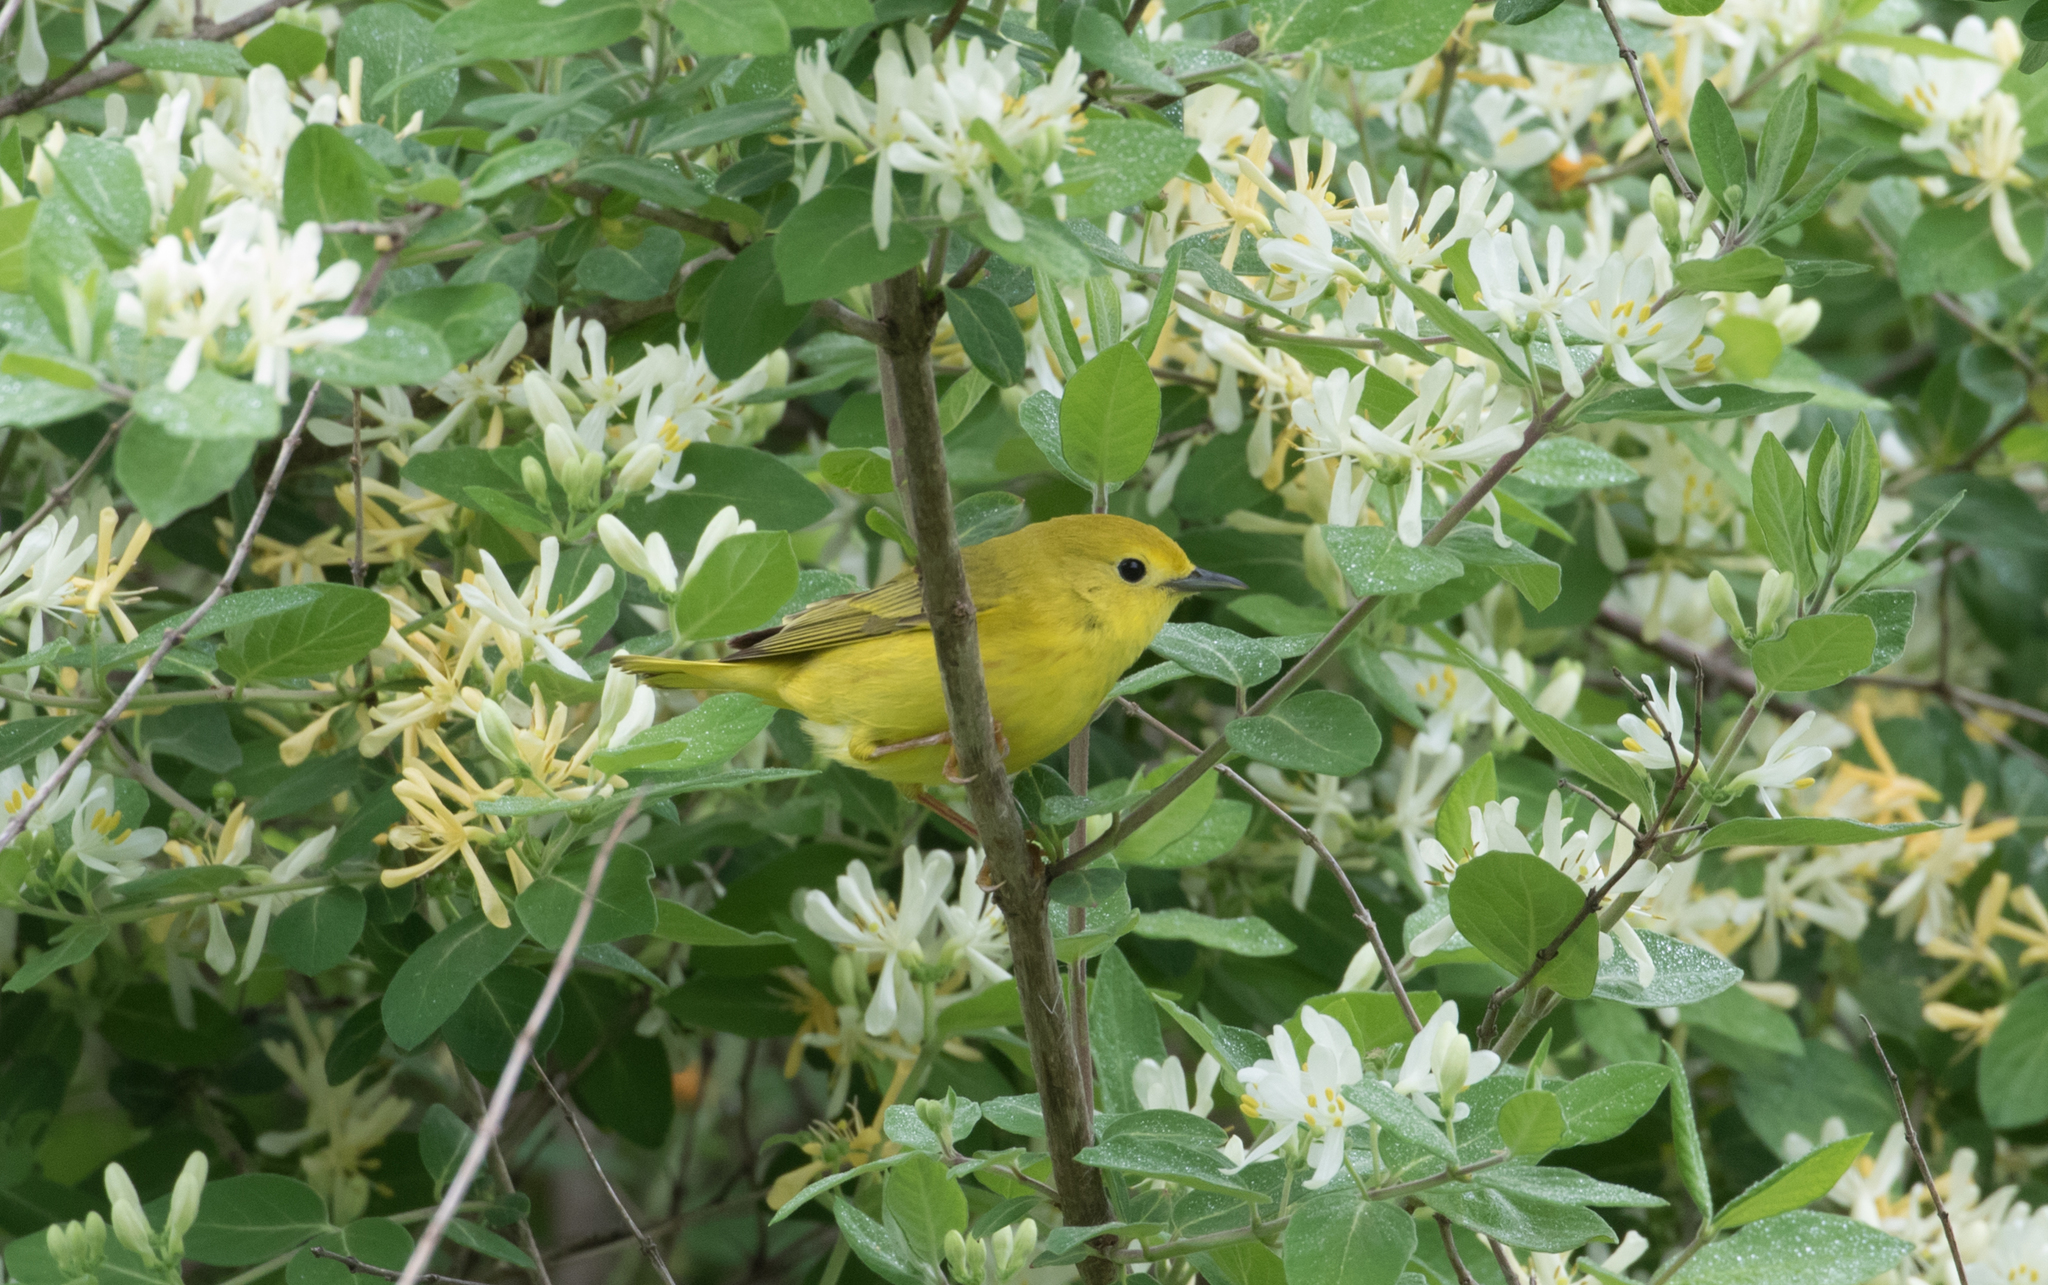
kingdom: Animalia
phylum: Chordata
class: Aves
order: Passeriformes
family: Parulidae
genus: Setophaga
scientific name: Setophaga petechia
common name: Yellow warbler
